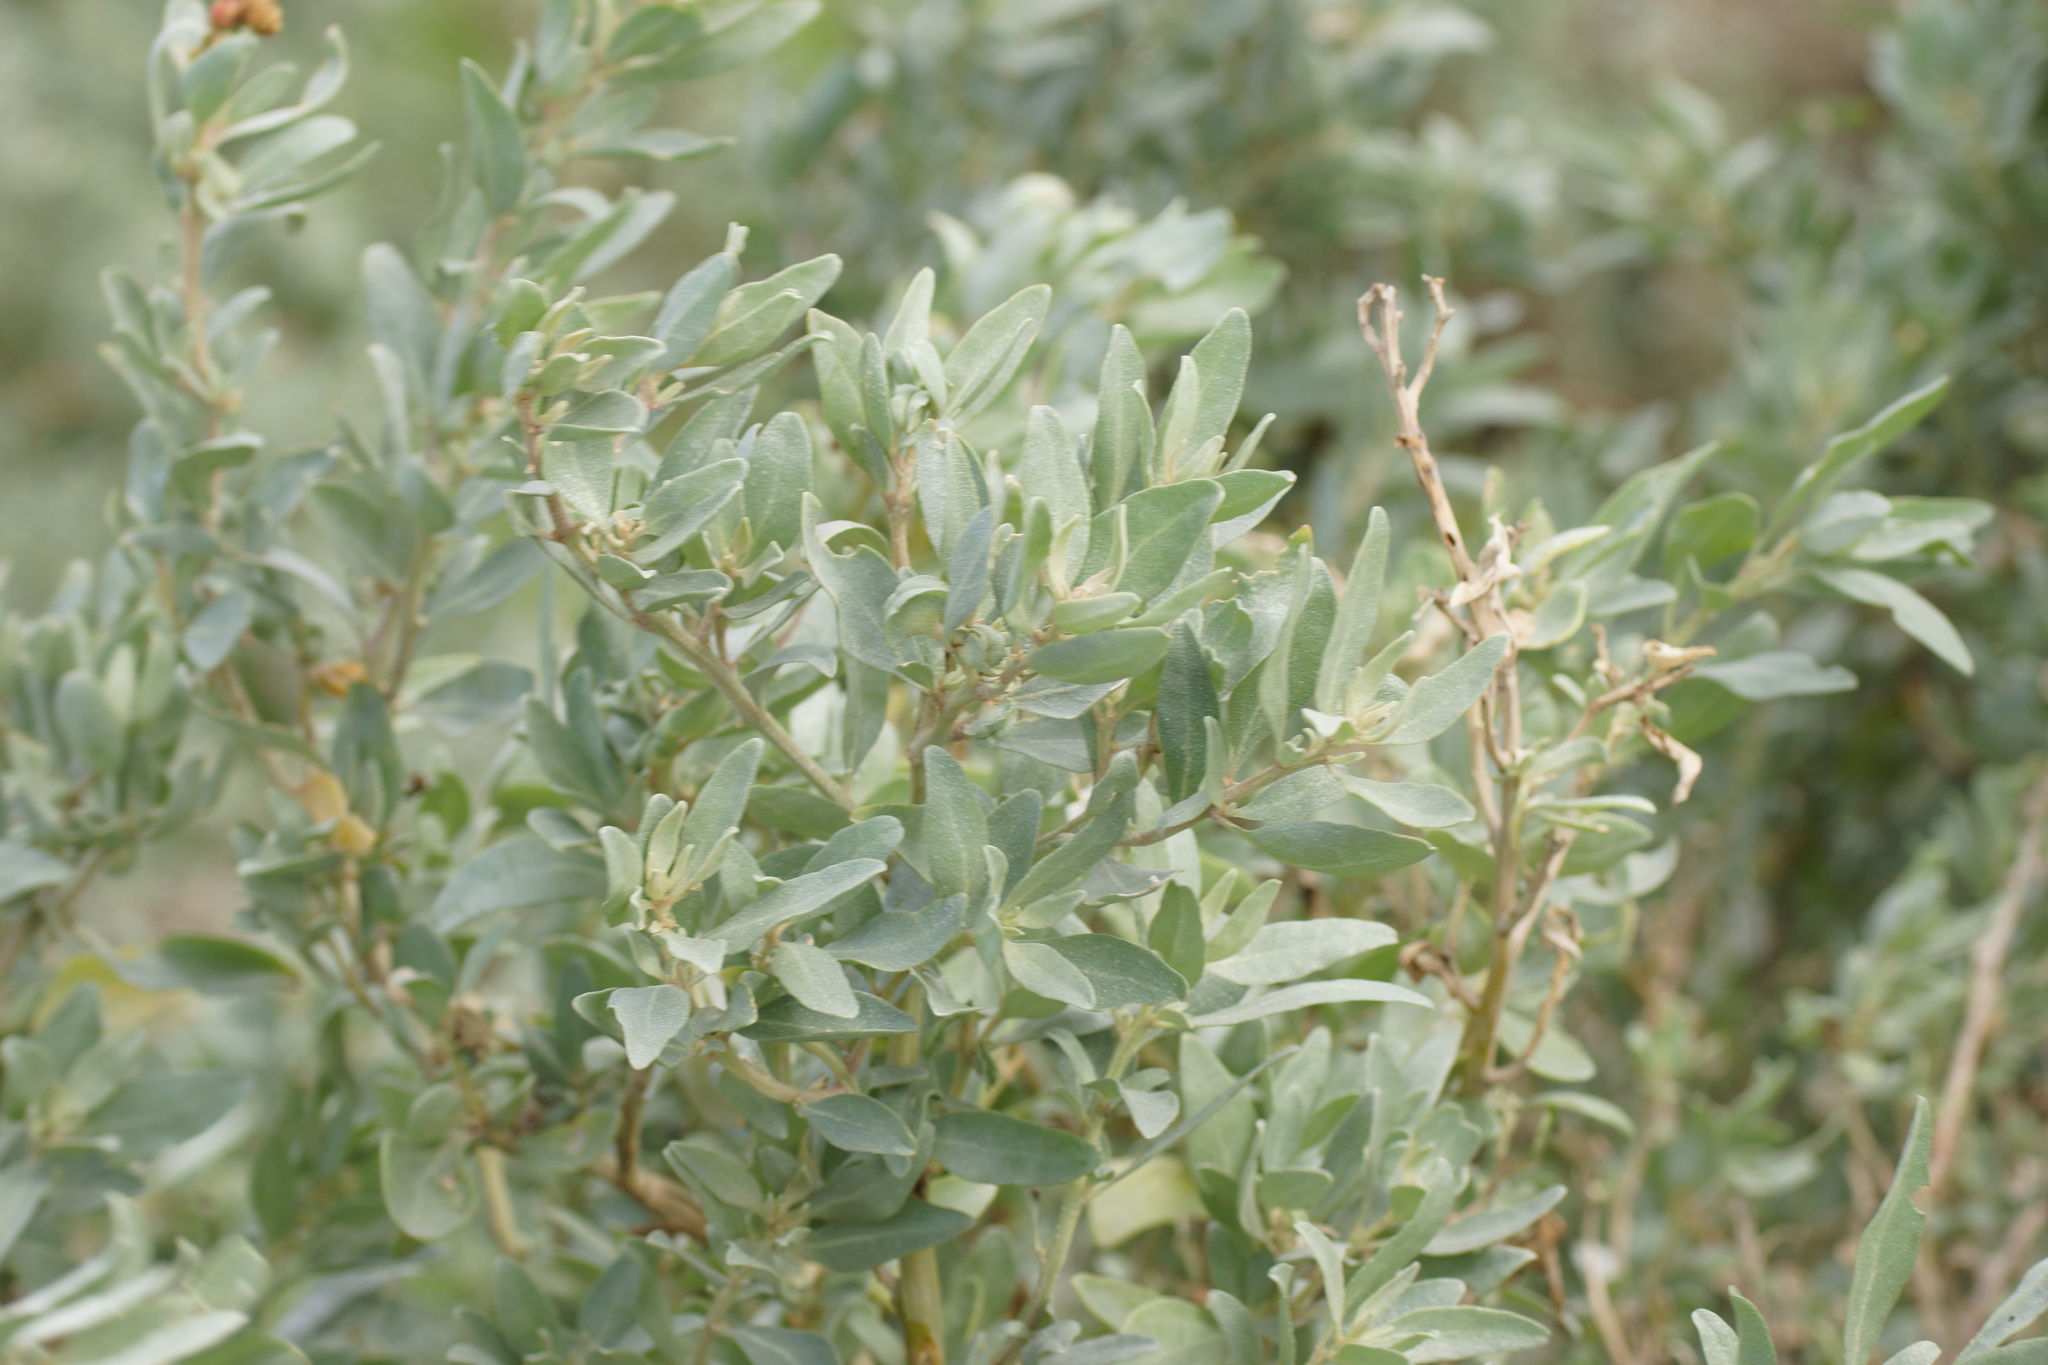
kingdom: Plantae
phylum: Tracheophyta
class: Magnoliopsida
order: Caryophyllales
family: Amaranthaceae
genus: Atriplex
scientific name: Atriplex paludosa
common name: Marsh saltbush
